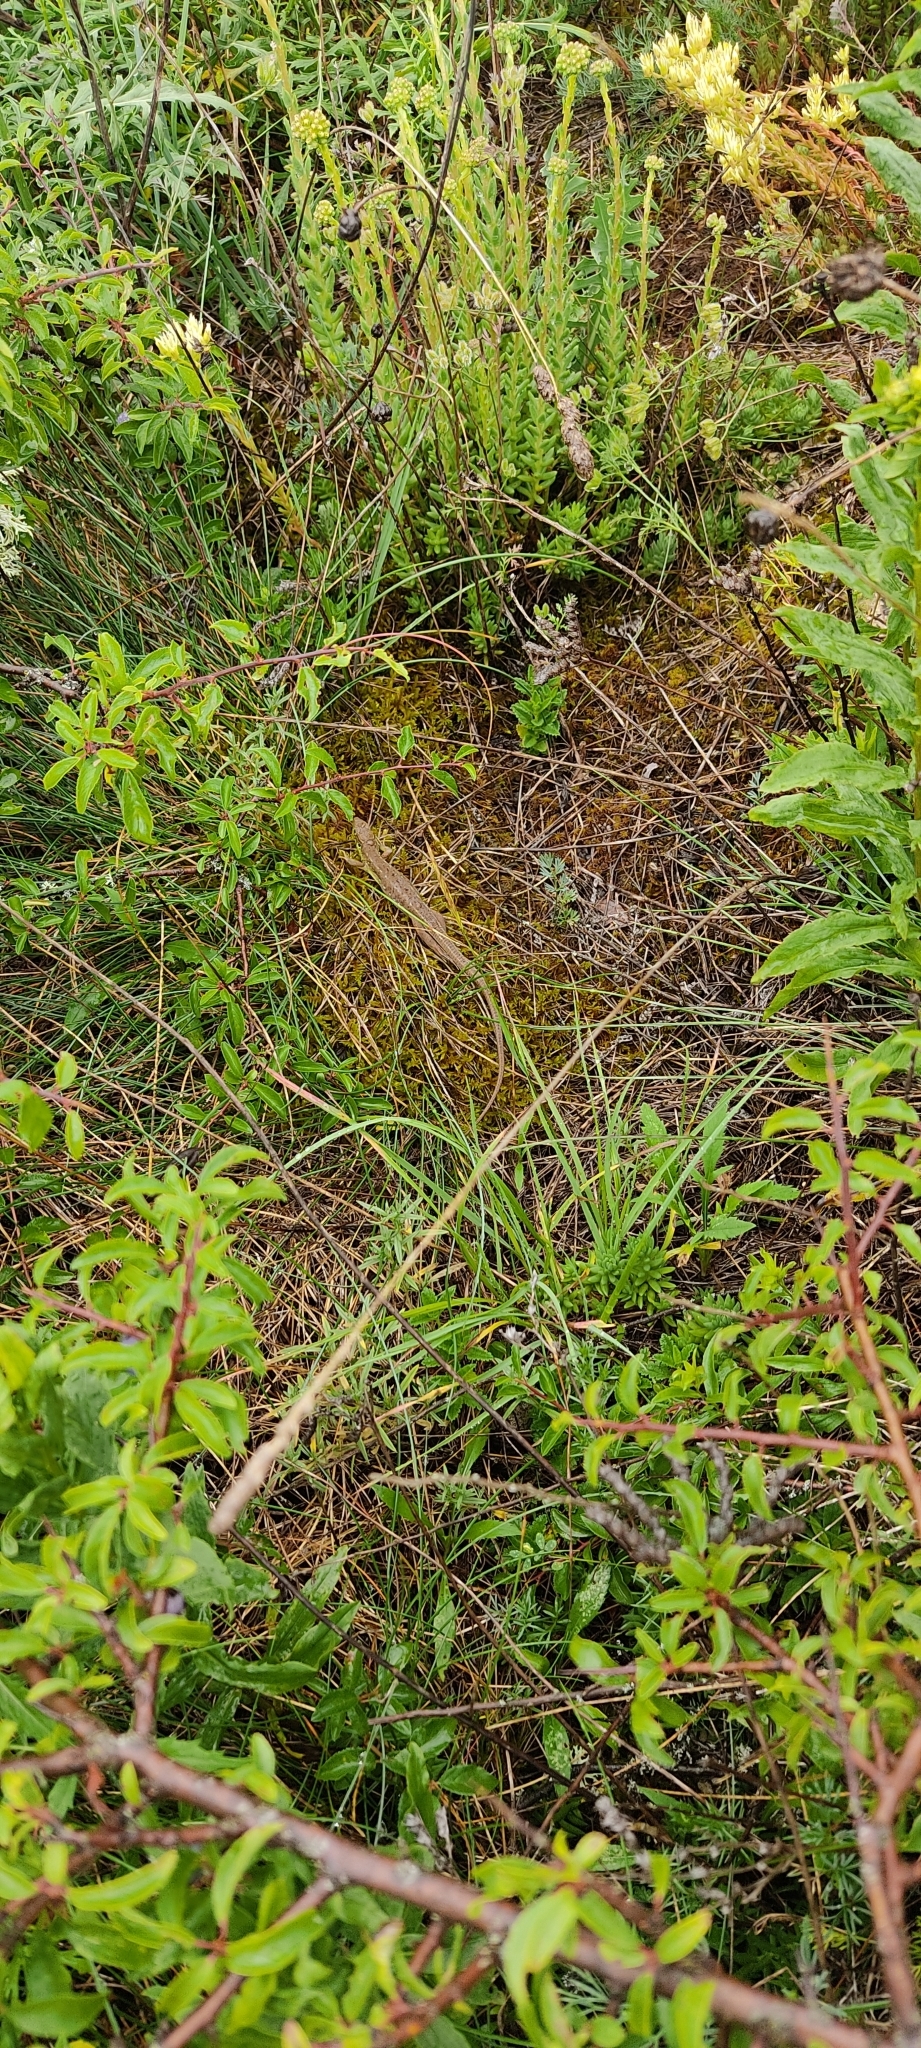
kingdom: Animalia
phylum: Chordata
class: Squamata
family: Lacertidae
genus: Lacerta
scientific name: Lacerta bilineata
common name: Western green lizard
